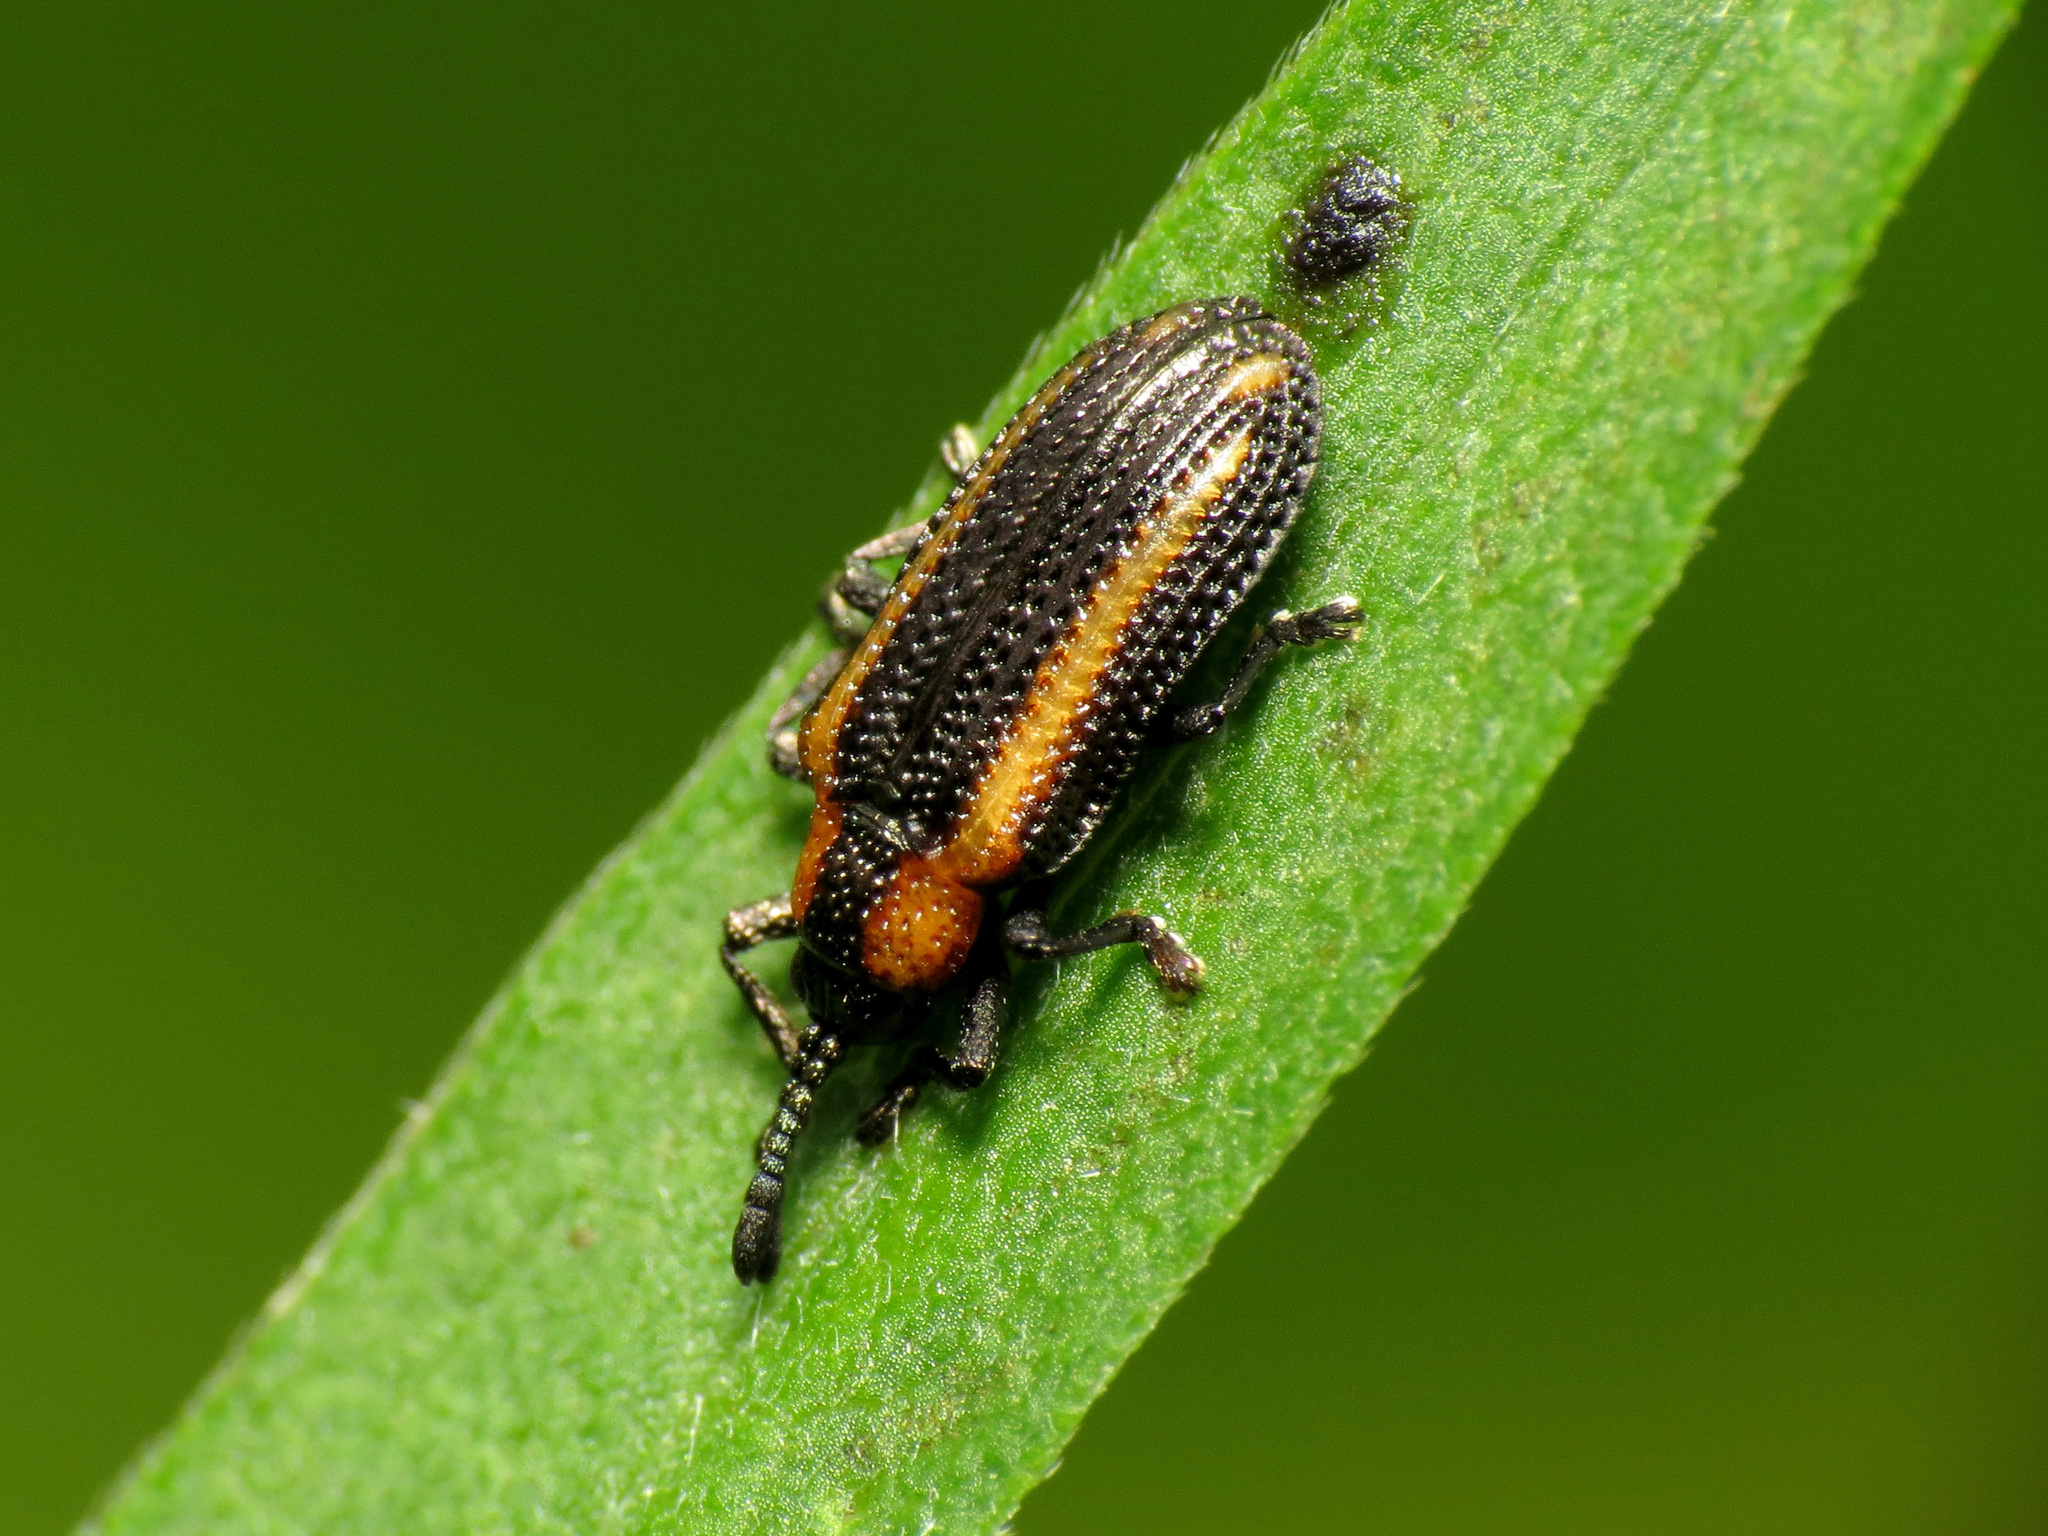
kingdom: Animalia
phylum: Arthropoda
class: Insecta
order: Coleoptera
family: Chrysomelidae
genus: Microrhopala
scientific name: Microrhopala xerene
